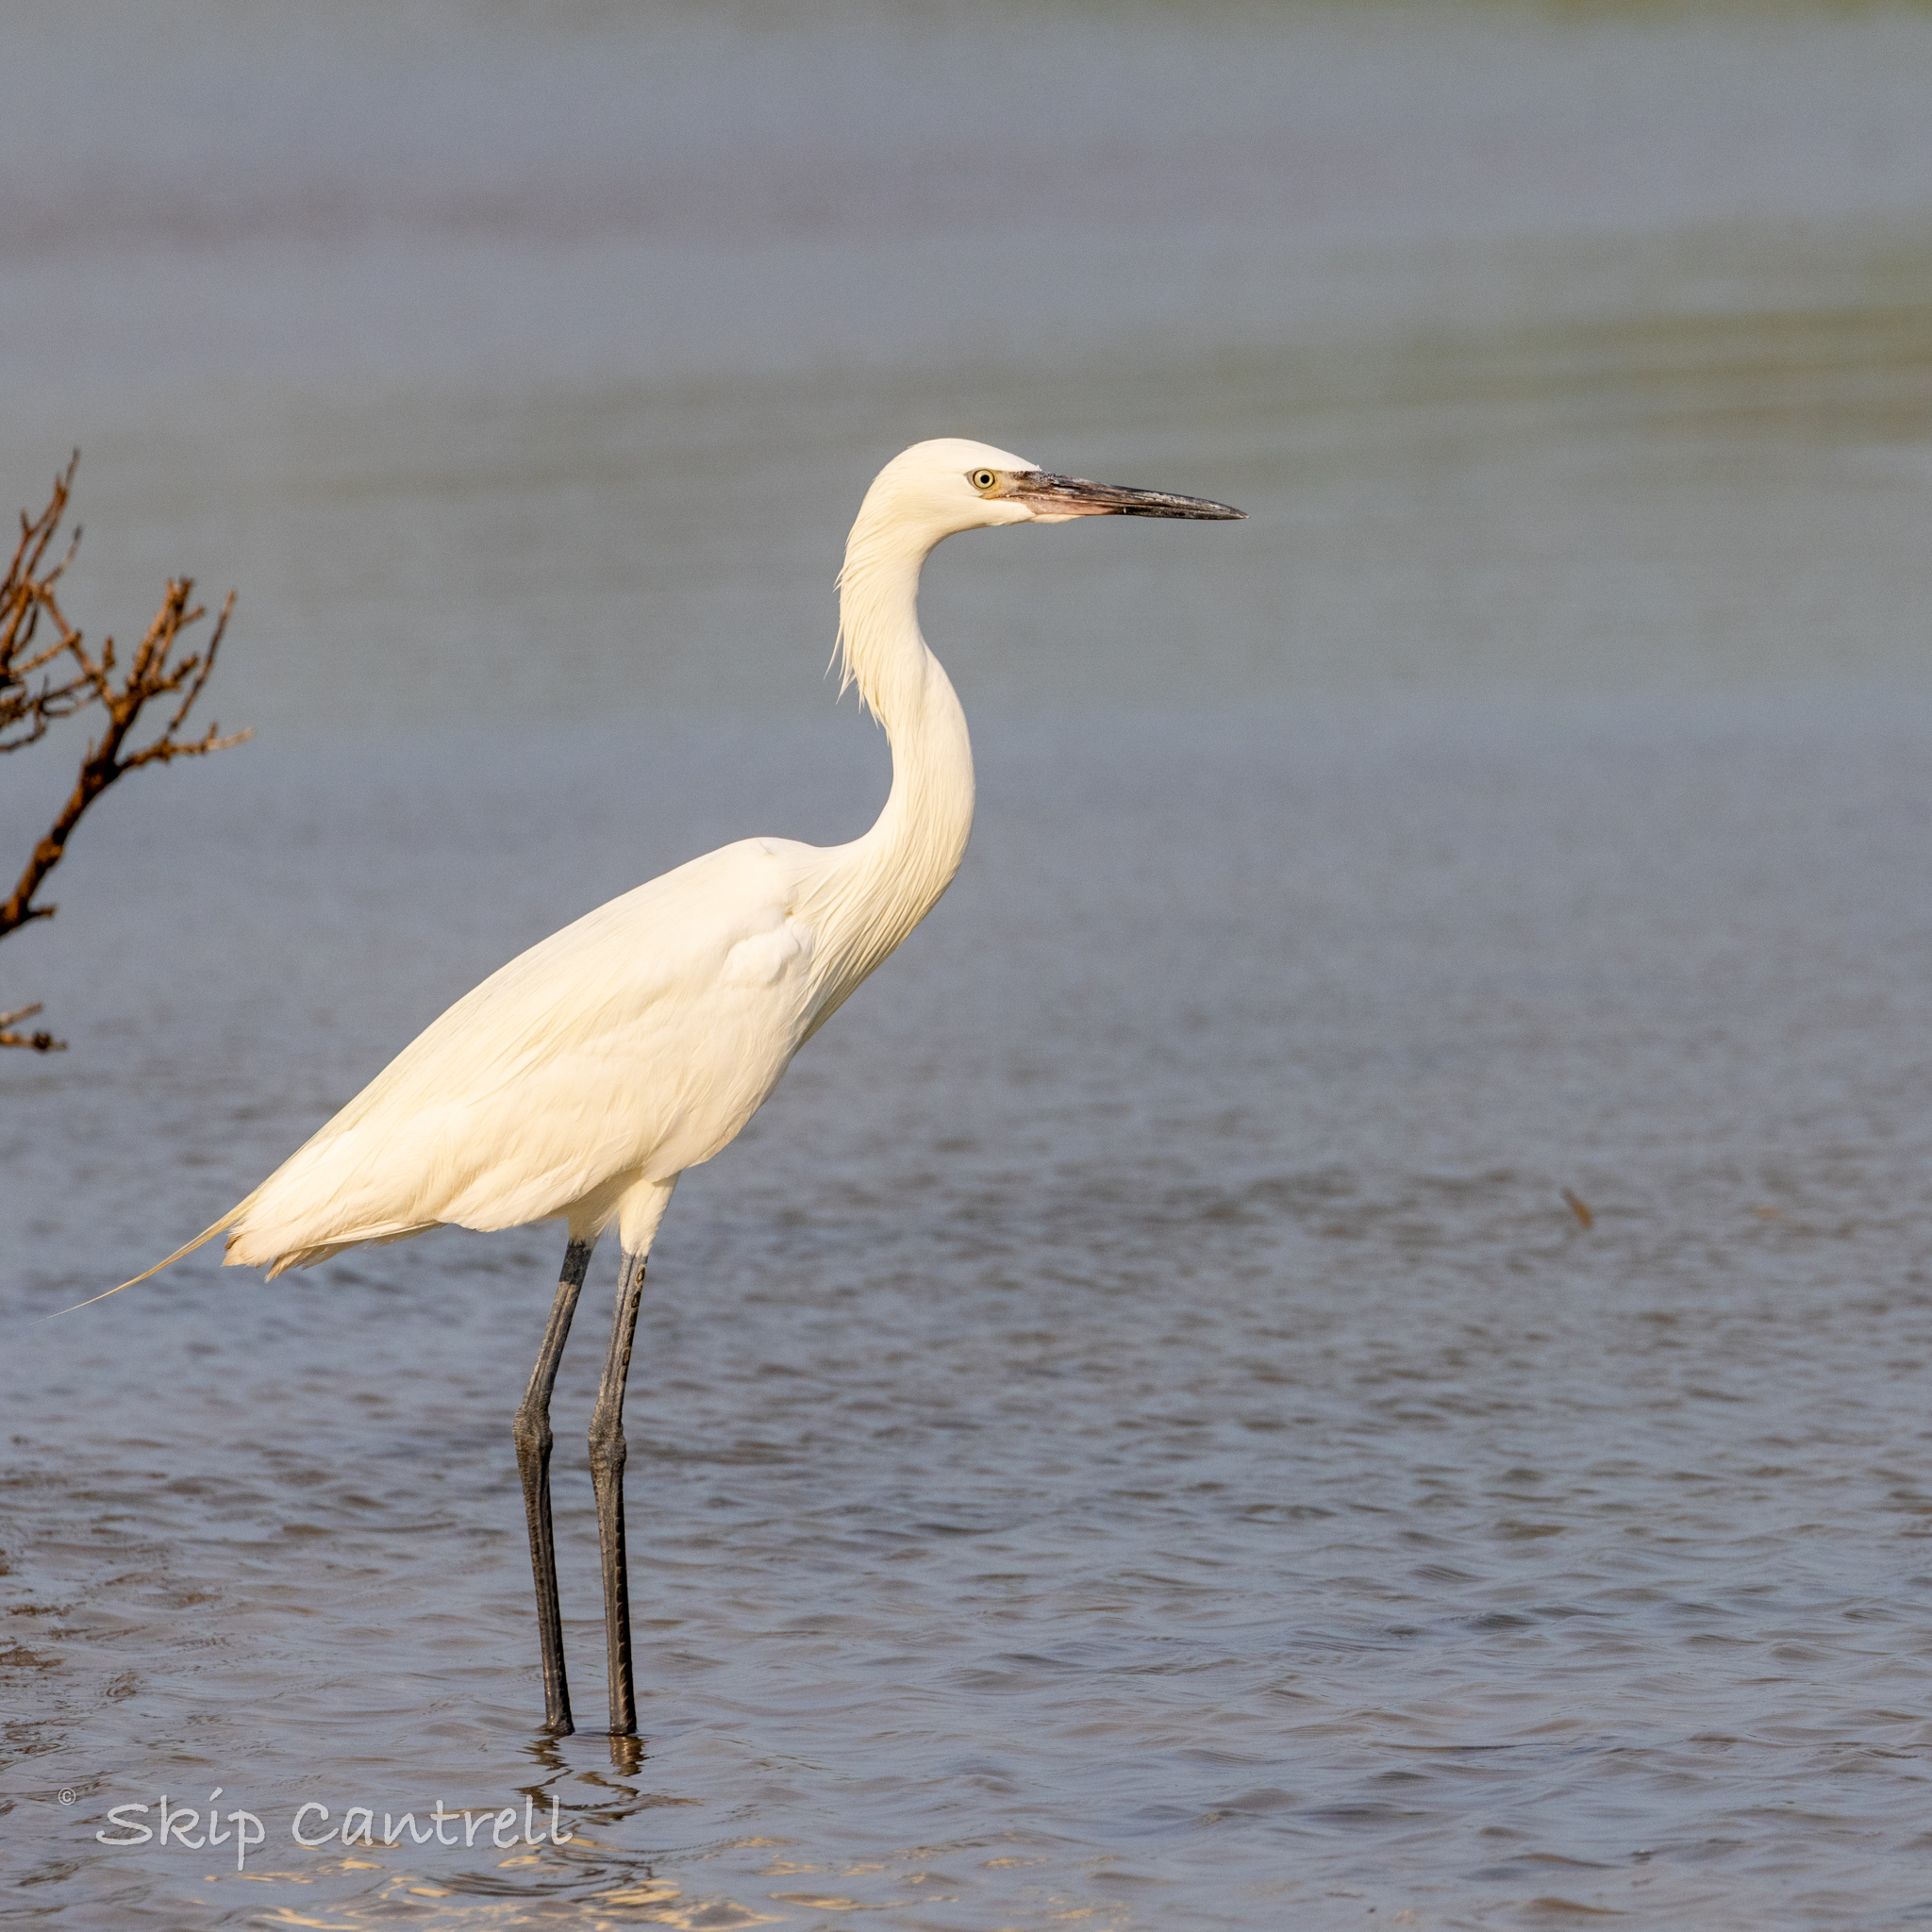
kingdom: Animalia
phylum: Chordata
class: Aves
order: Pelecaniformes
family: Ardeidae
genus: Egretta
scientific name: Egretta rufescens
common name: Reddish egret
